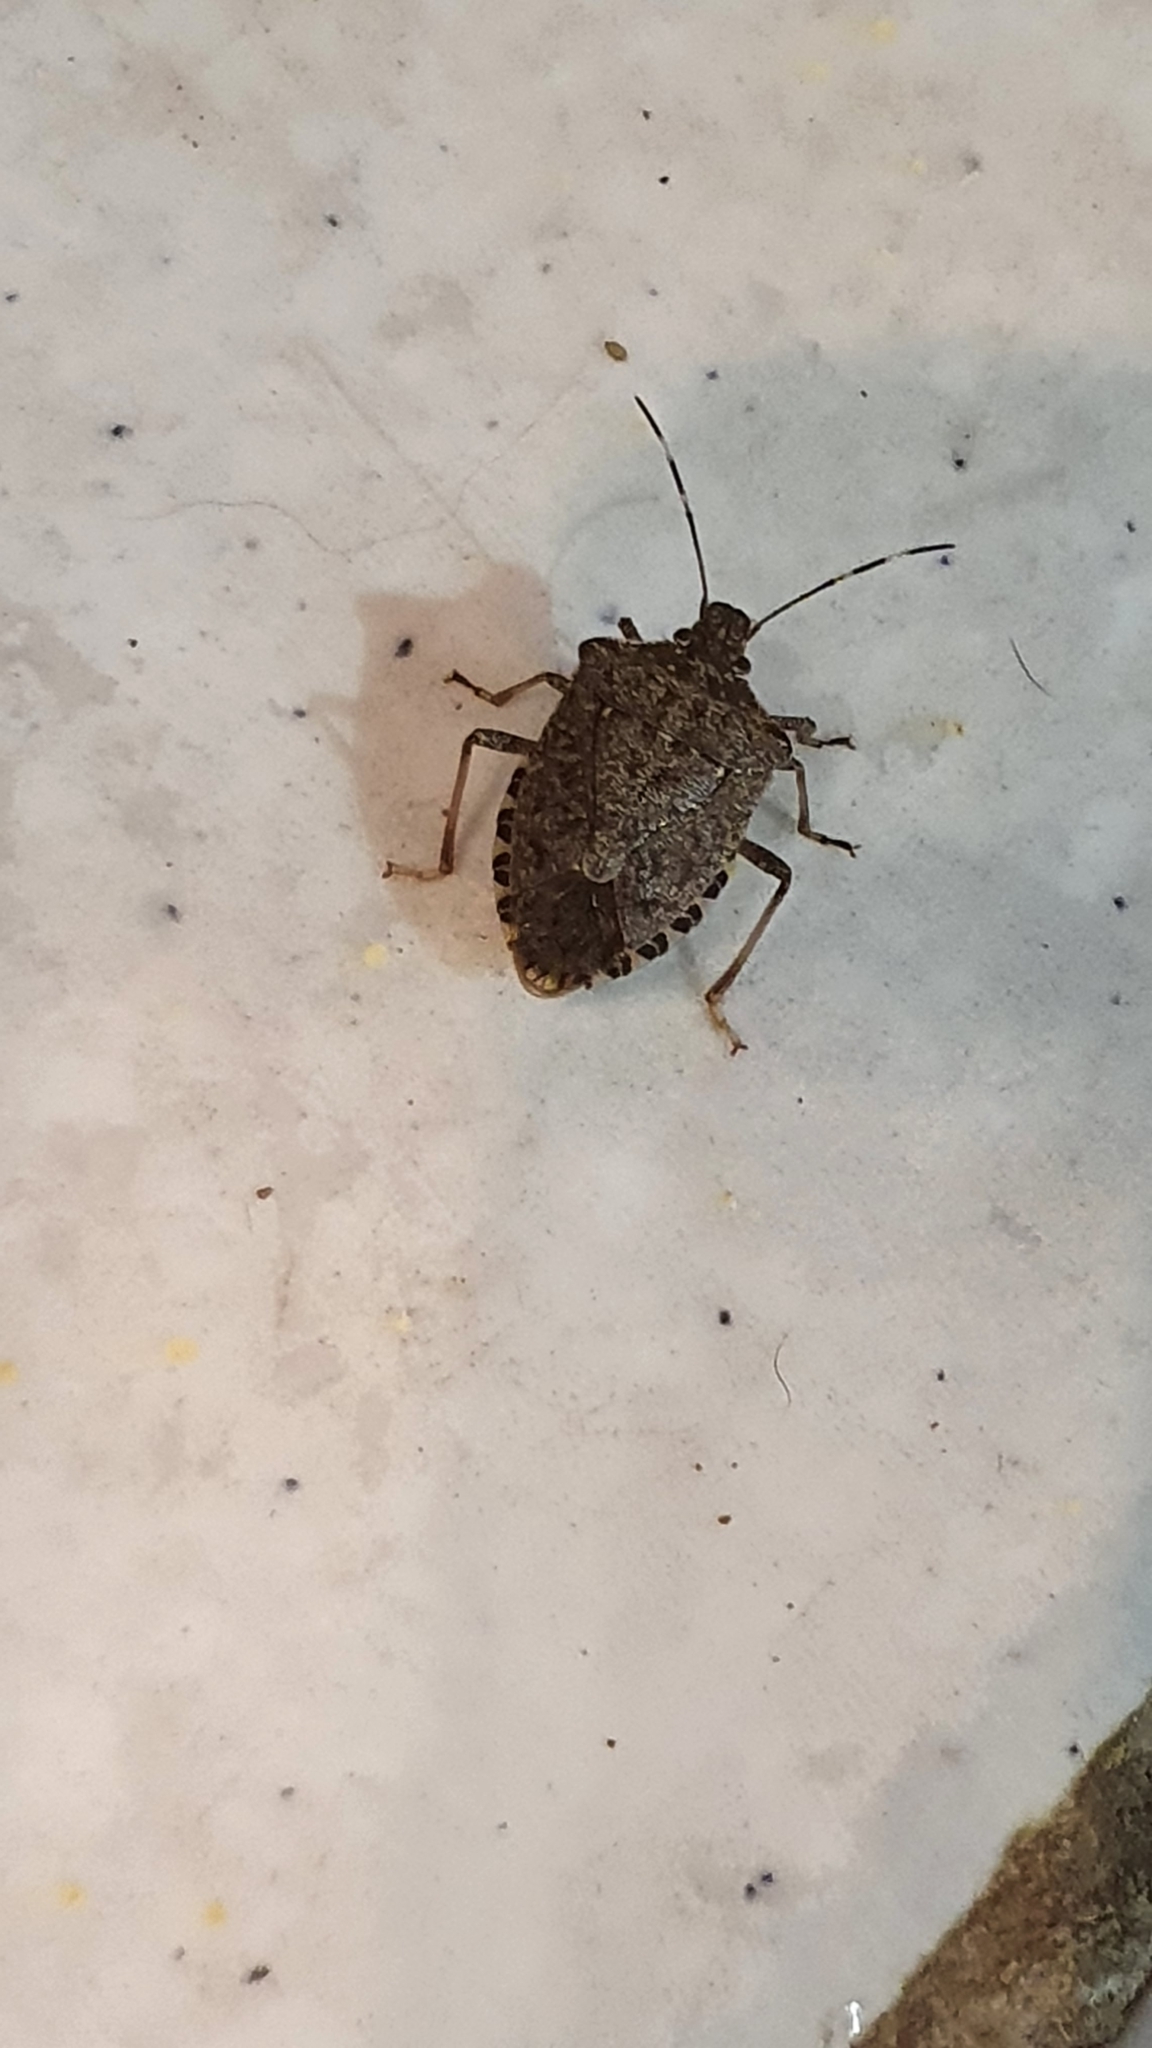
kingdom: Animalia
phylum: Arthropoda
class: Insecta
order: Hemiptera
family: Pentatomidae
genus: Halyomorpha
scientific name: Halyomorpha halys
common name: Brown marmorated stink bug
